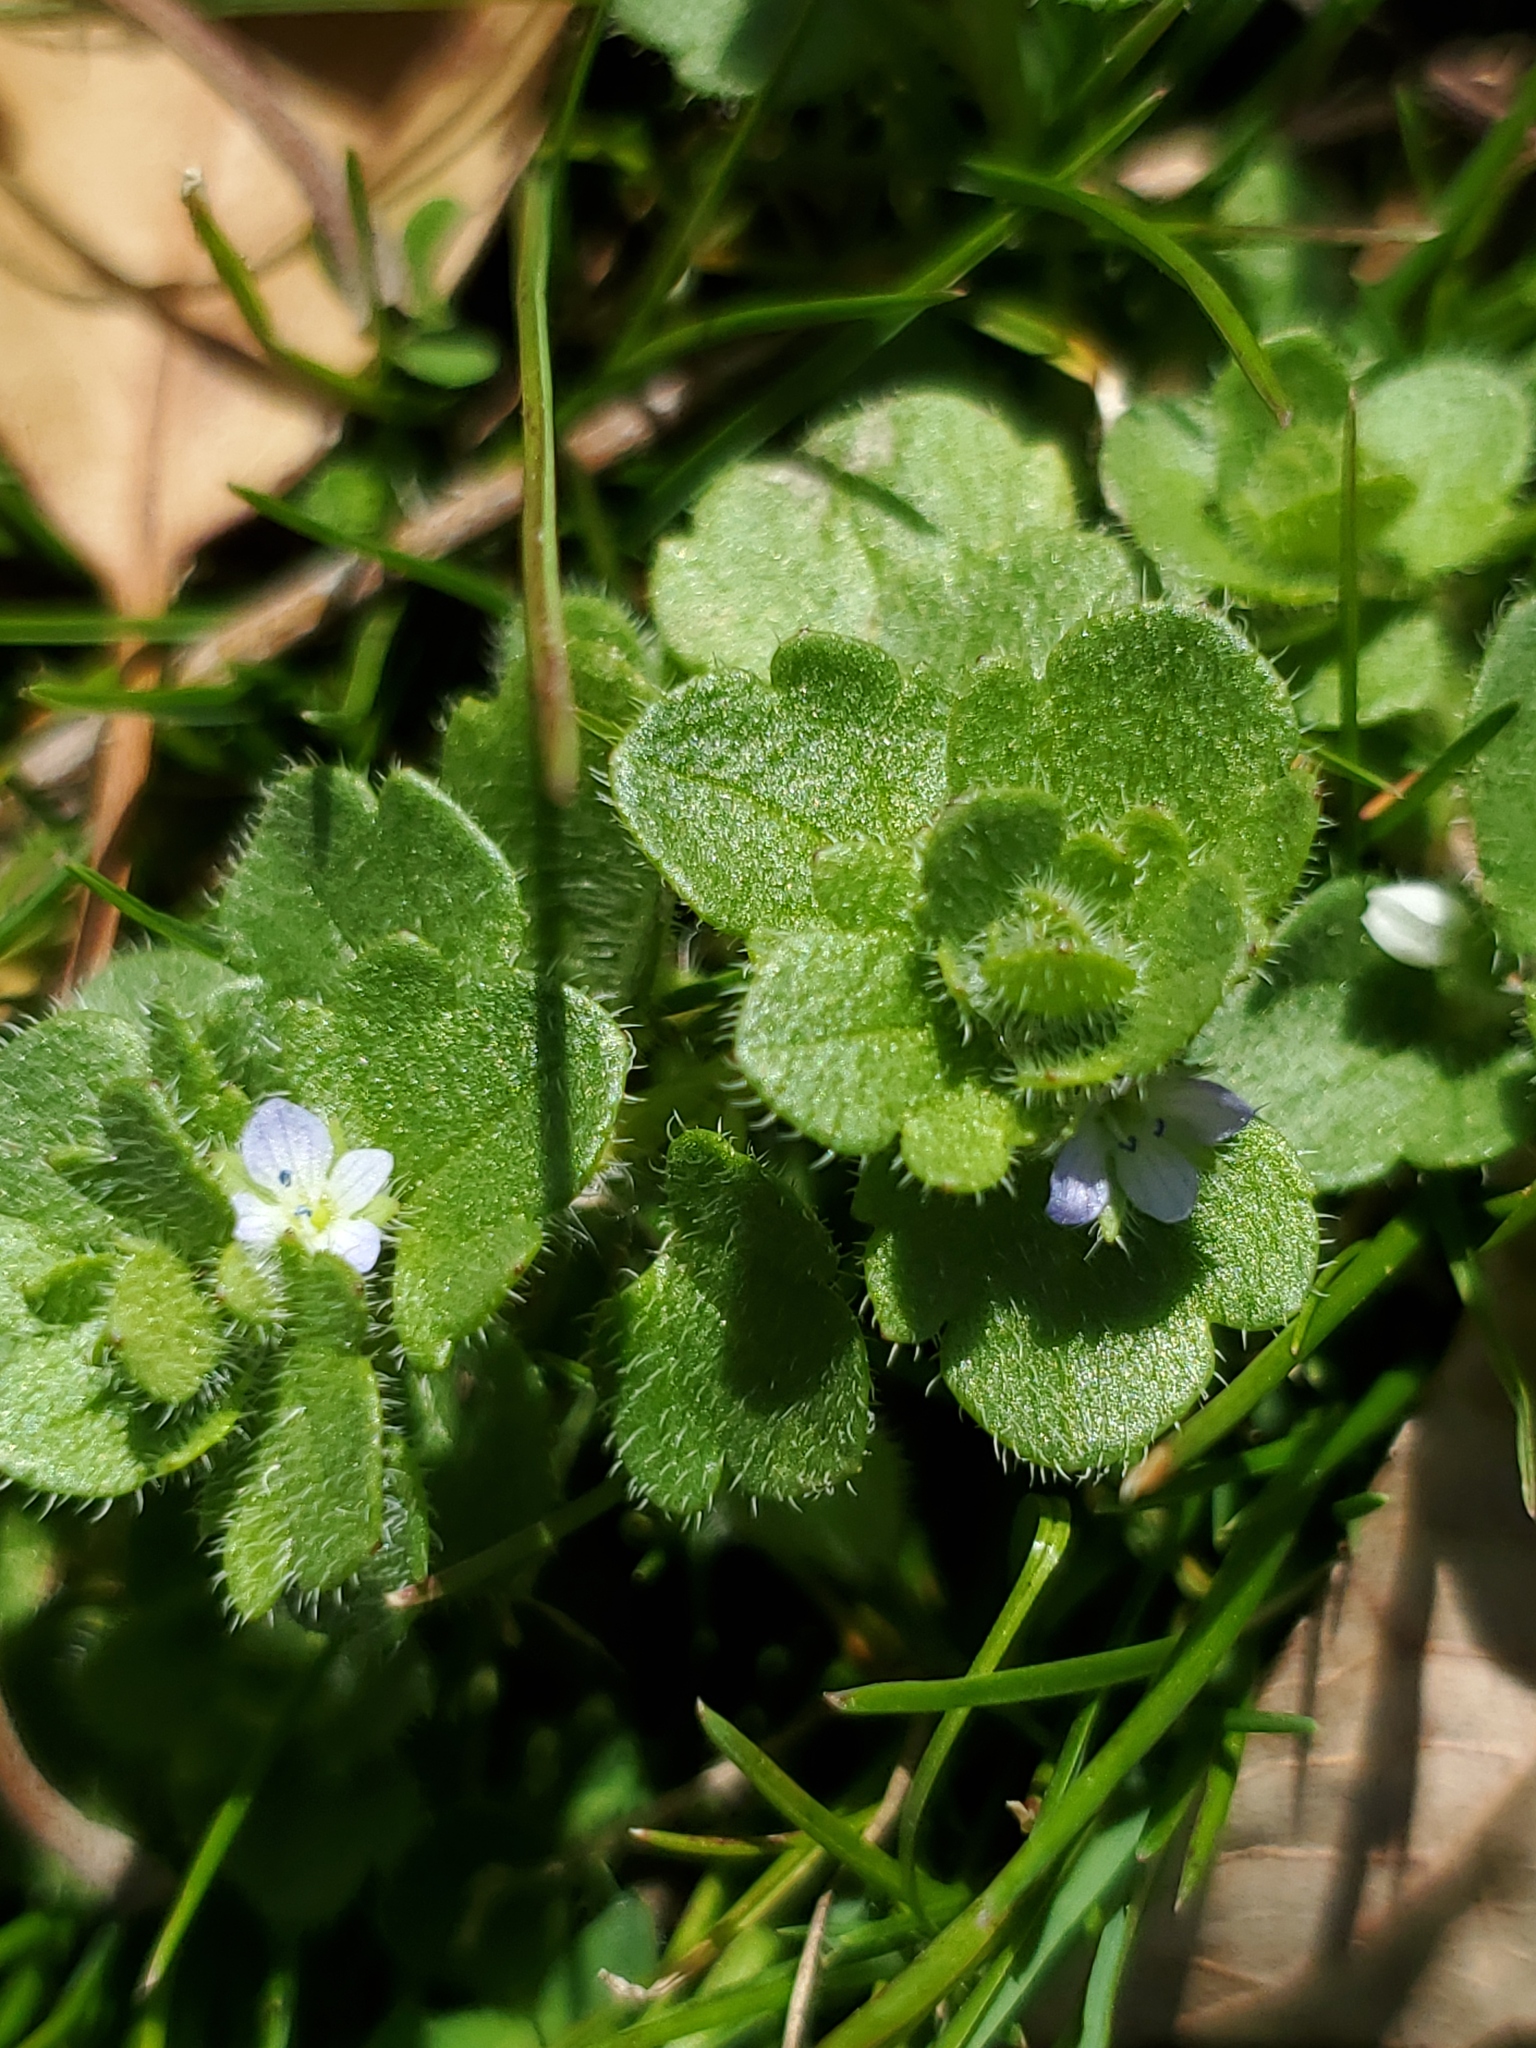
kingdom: Plantae
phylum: Tracheophyta
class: Magnoliopsida
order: Lamiales
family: Plantaginaceae
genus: Veronica
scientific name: Veronica hederifolia
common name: Ivy-leaved speedwell
